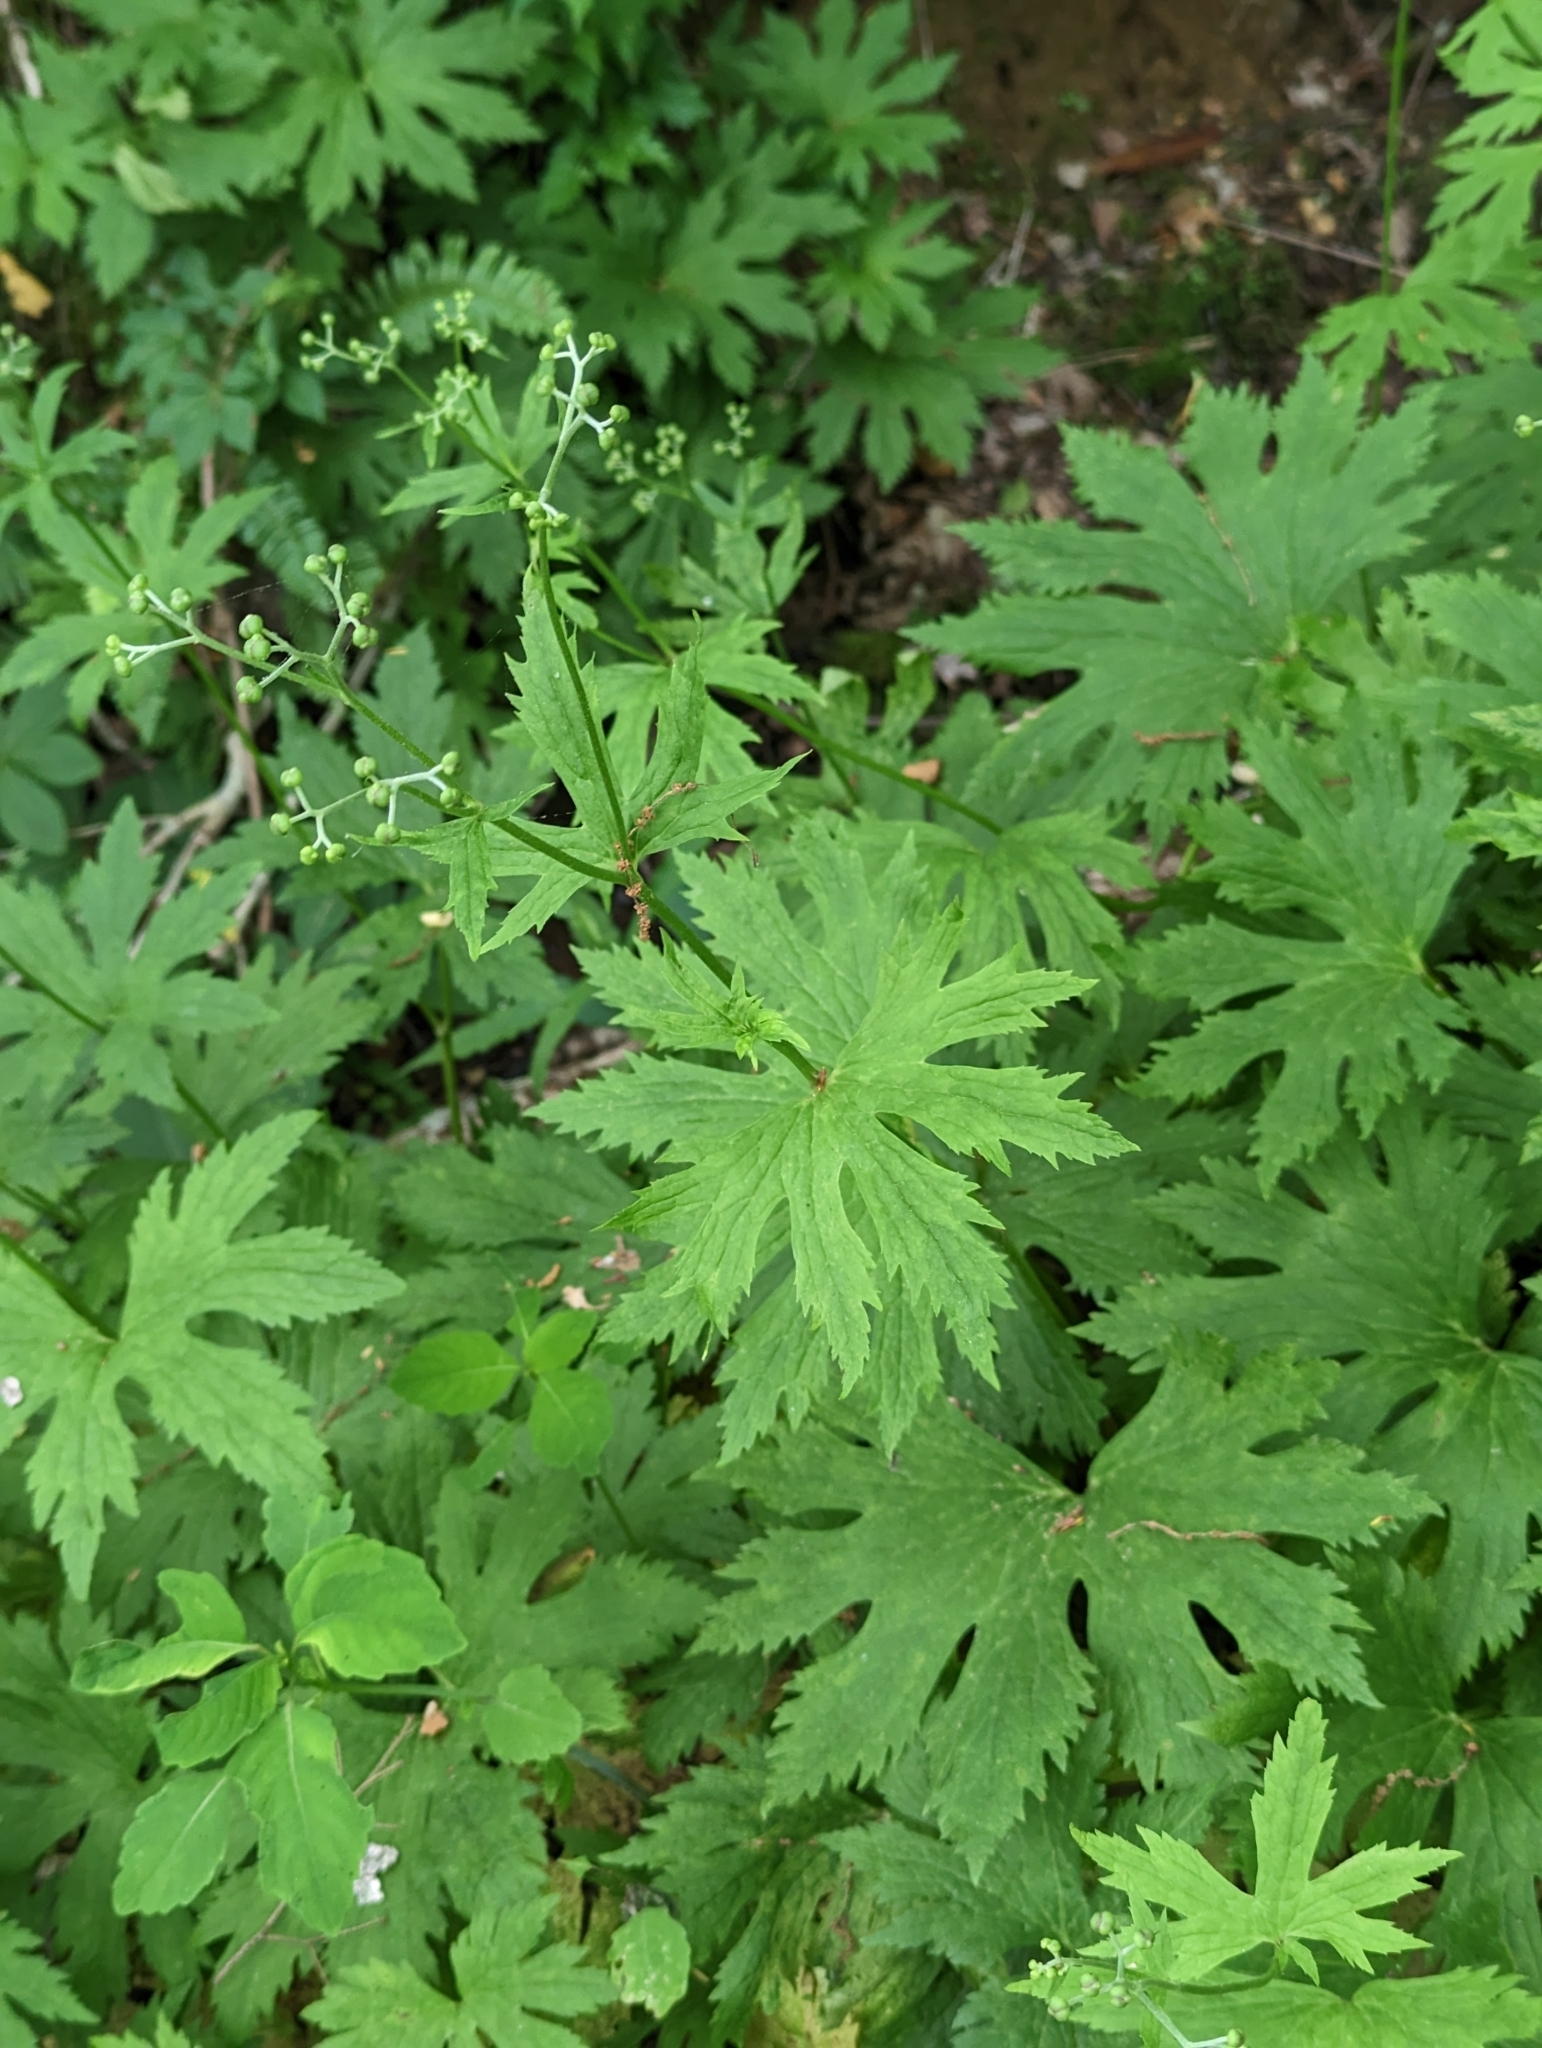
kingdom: Plantae
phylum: Tracheophyta
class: Magnoliopsida
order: Ranunculales
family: Ranunculaceae
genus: Trautvetteria
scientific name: Trautvetteria carolinensis
